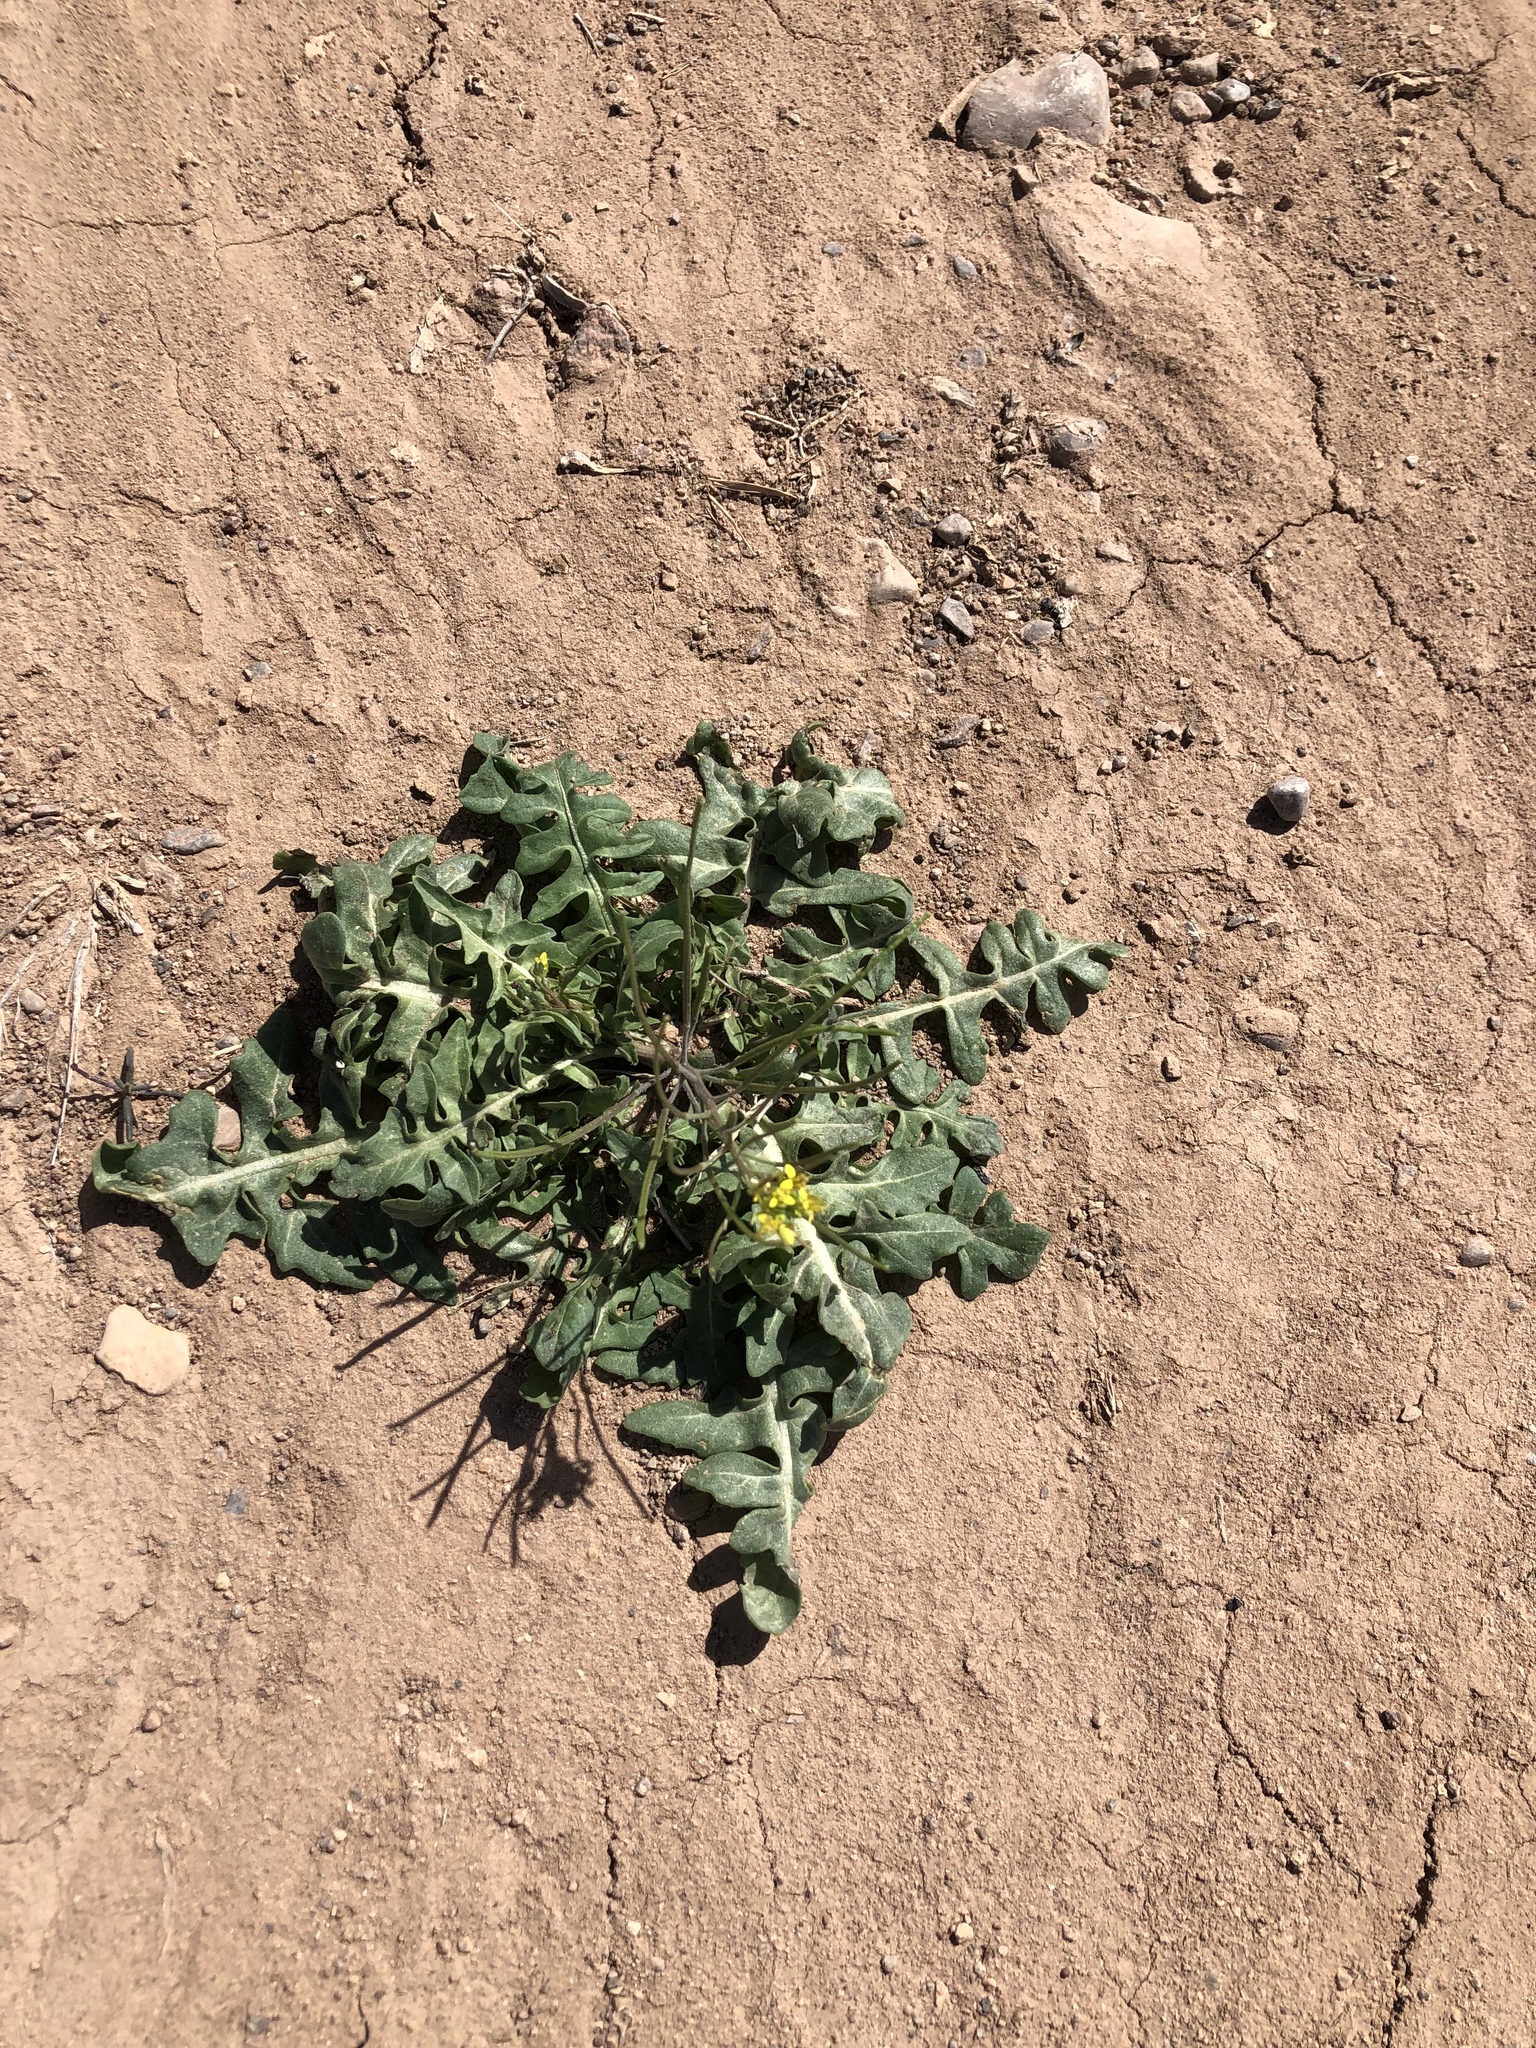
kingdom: Plantae
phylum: Tracheophyta
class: Magnoliopsida
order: Brassicales
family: Brassicaceae
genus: Sisymbrium
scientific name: Sisymbrium irio
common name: London rocket
